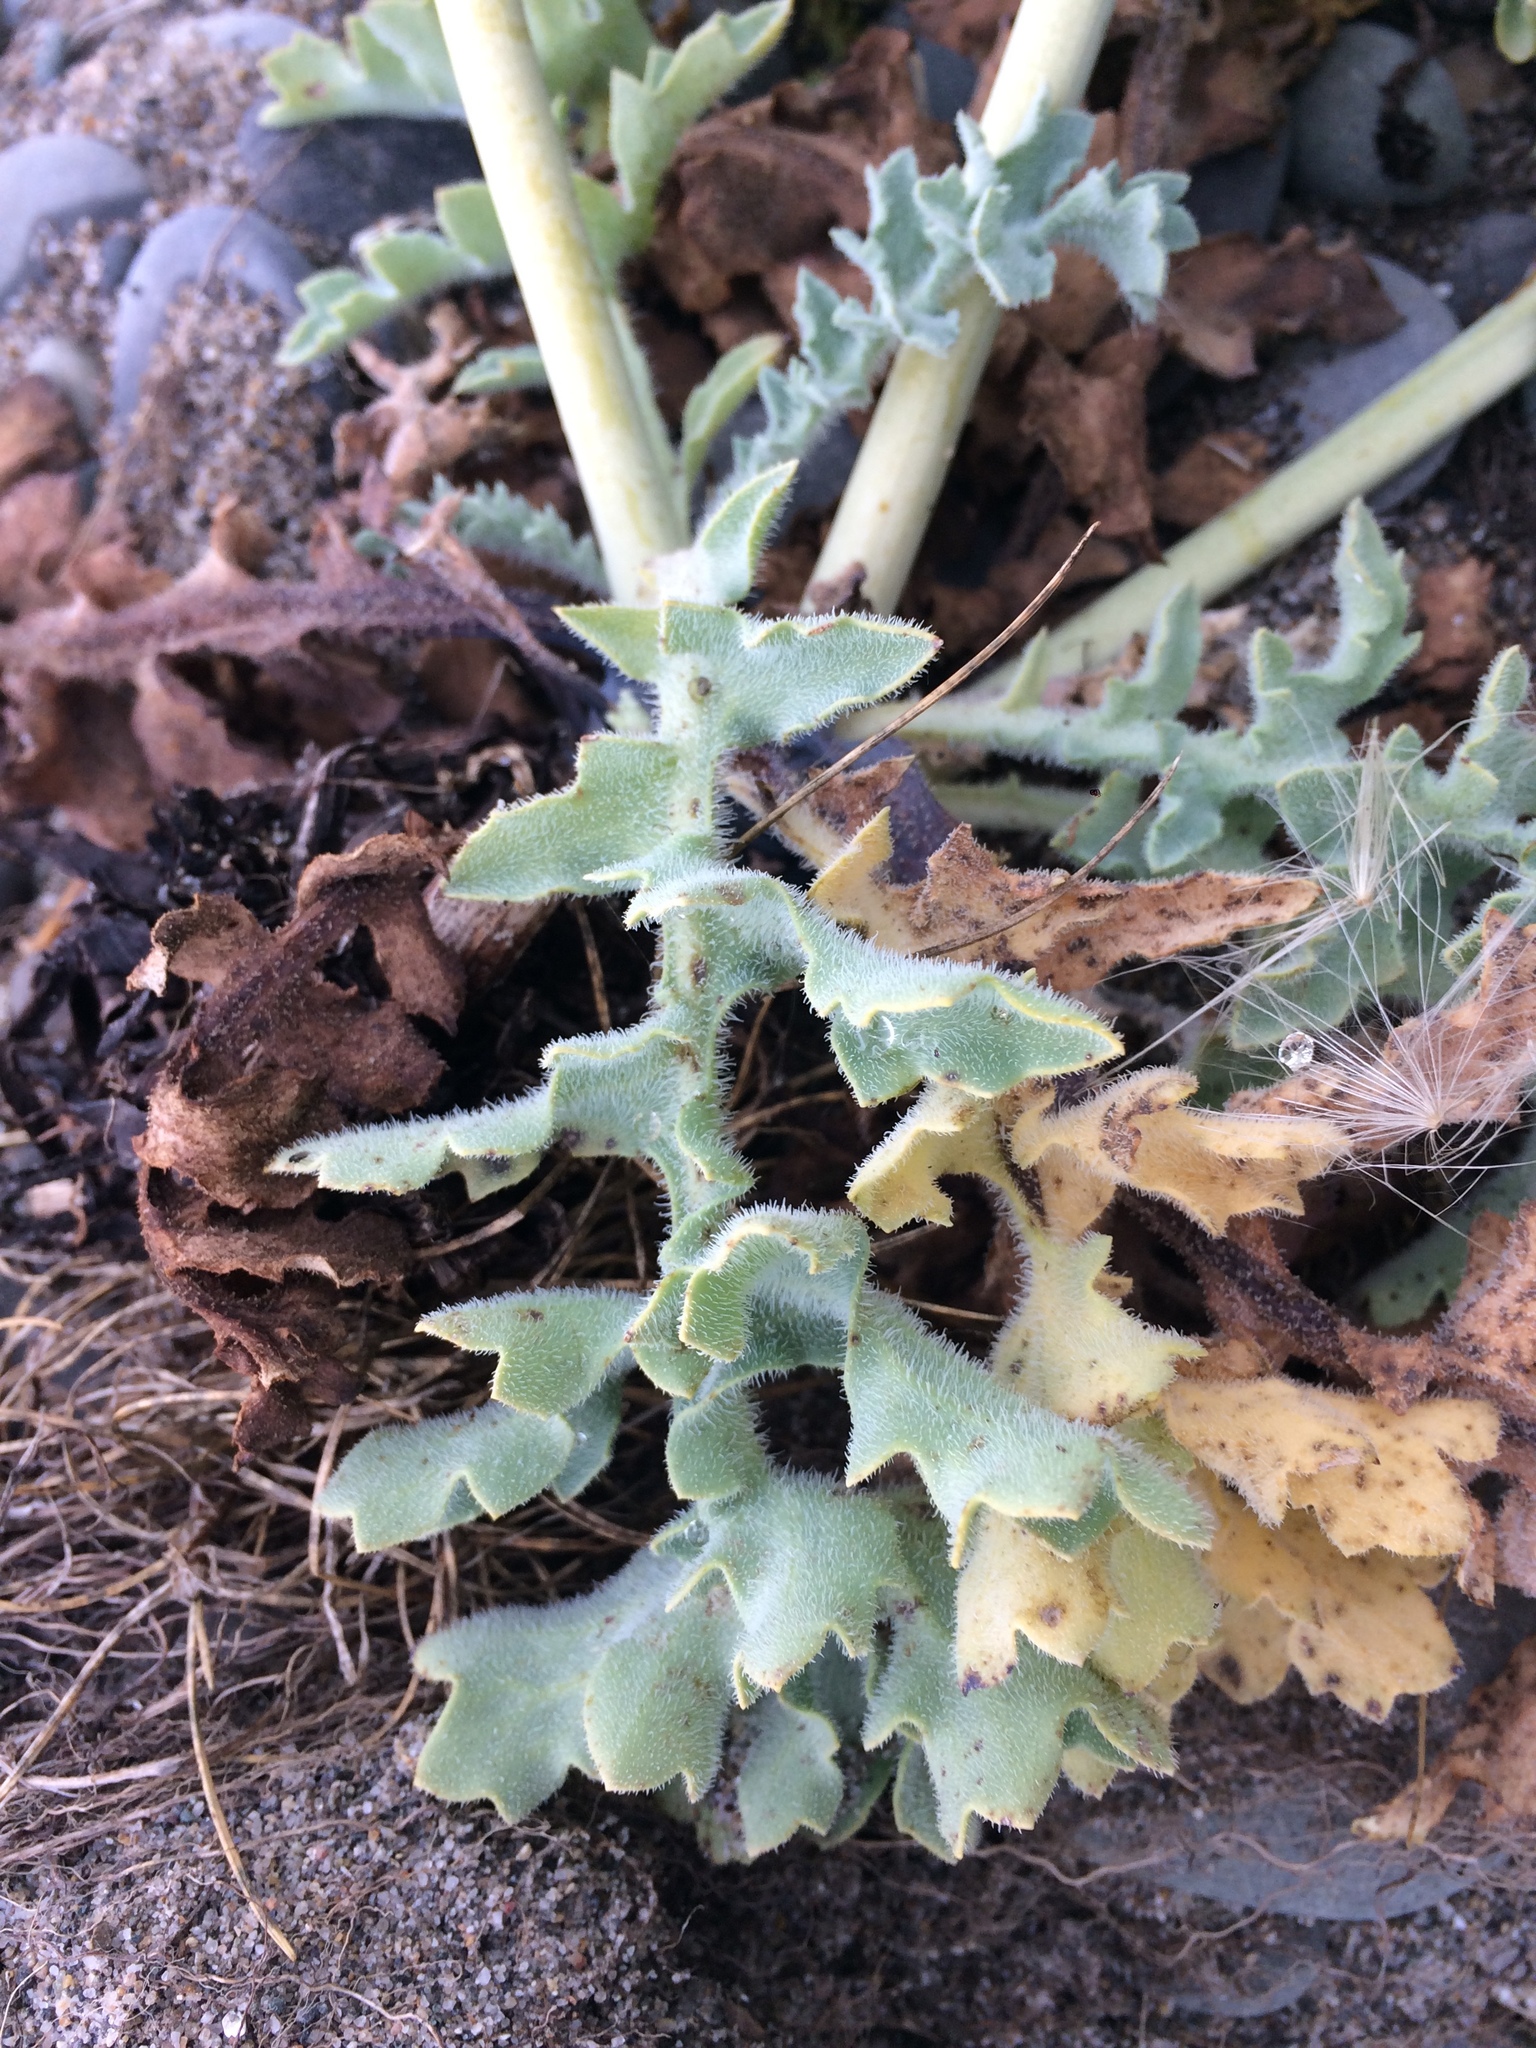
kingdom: Plantae
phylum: Tracheophyta
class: Magnoliopsida
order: Ranunculales
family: Papaveraceae
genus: Glaucium
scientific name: Glaucium flavum
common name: Yellow horned-poppy
